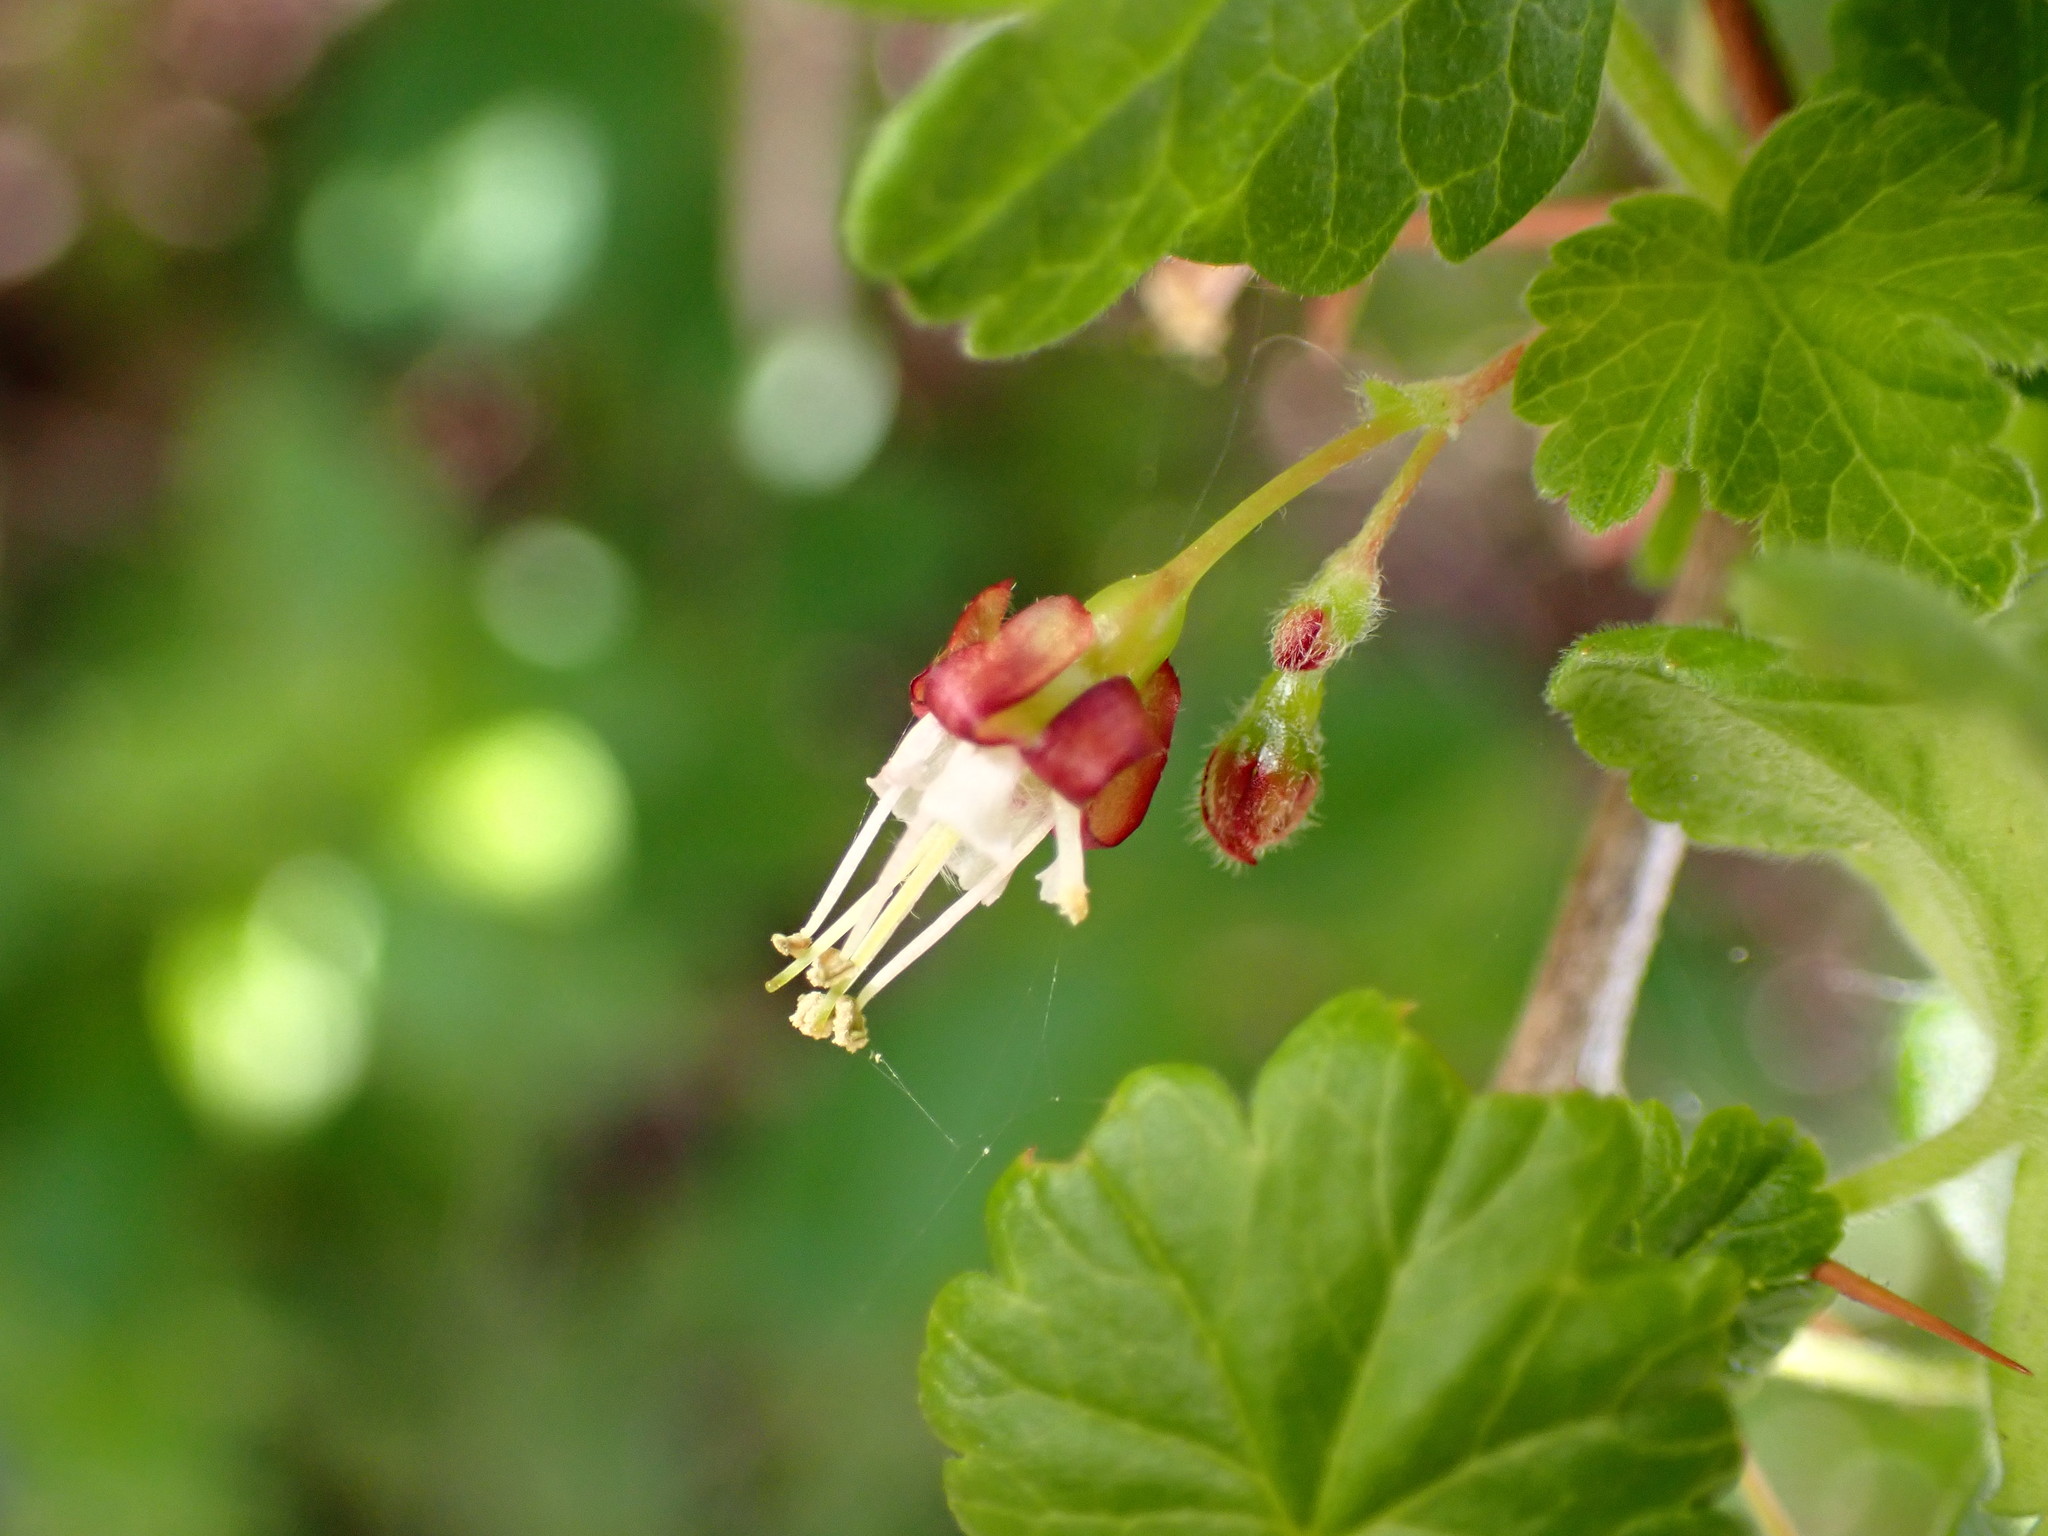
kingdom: Plantae
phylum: Tracheophyta
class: Magnoliopsida
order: Saxifragales
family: Grossulariaceae
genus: Ribes
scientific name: Ribes divaricatum
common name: Wild black gooseberry
